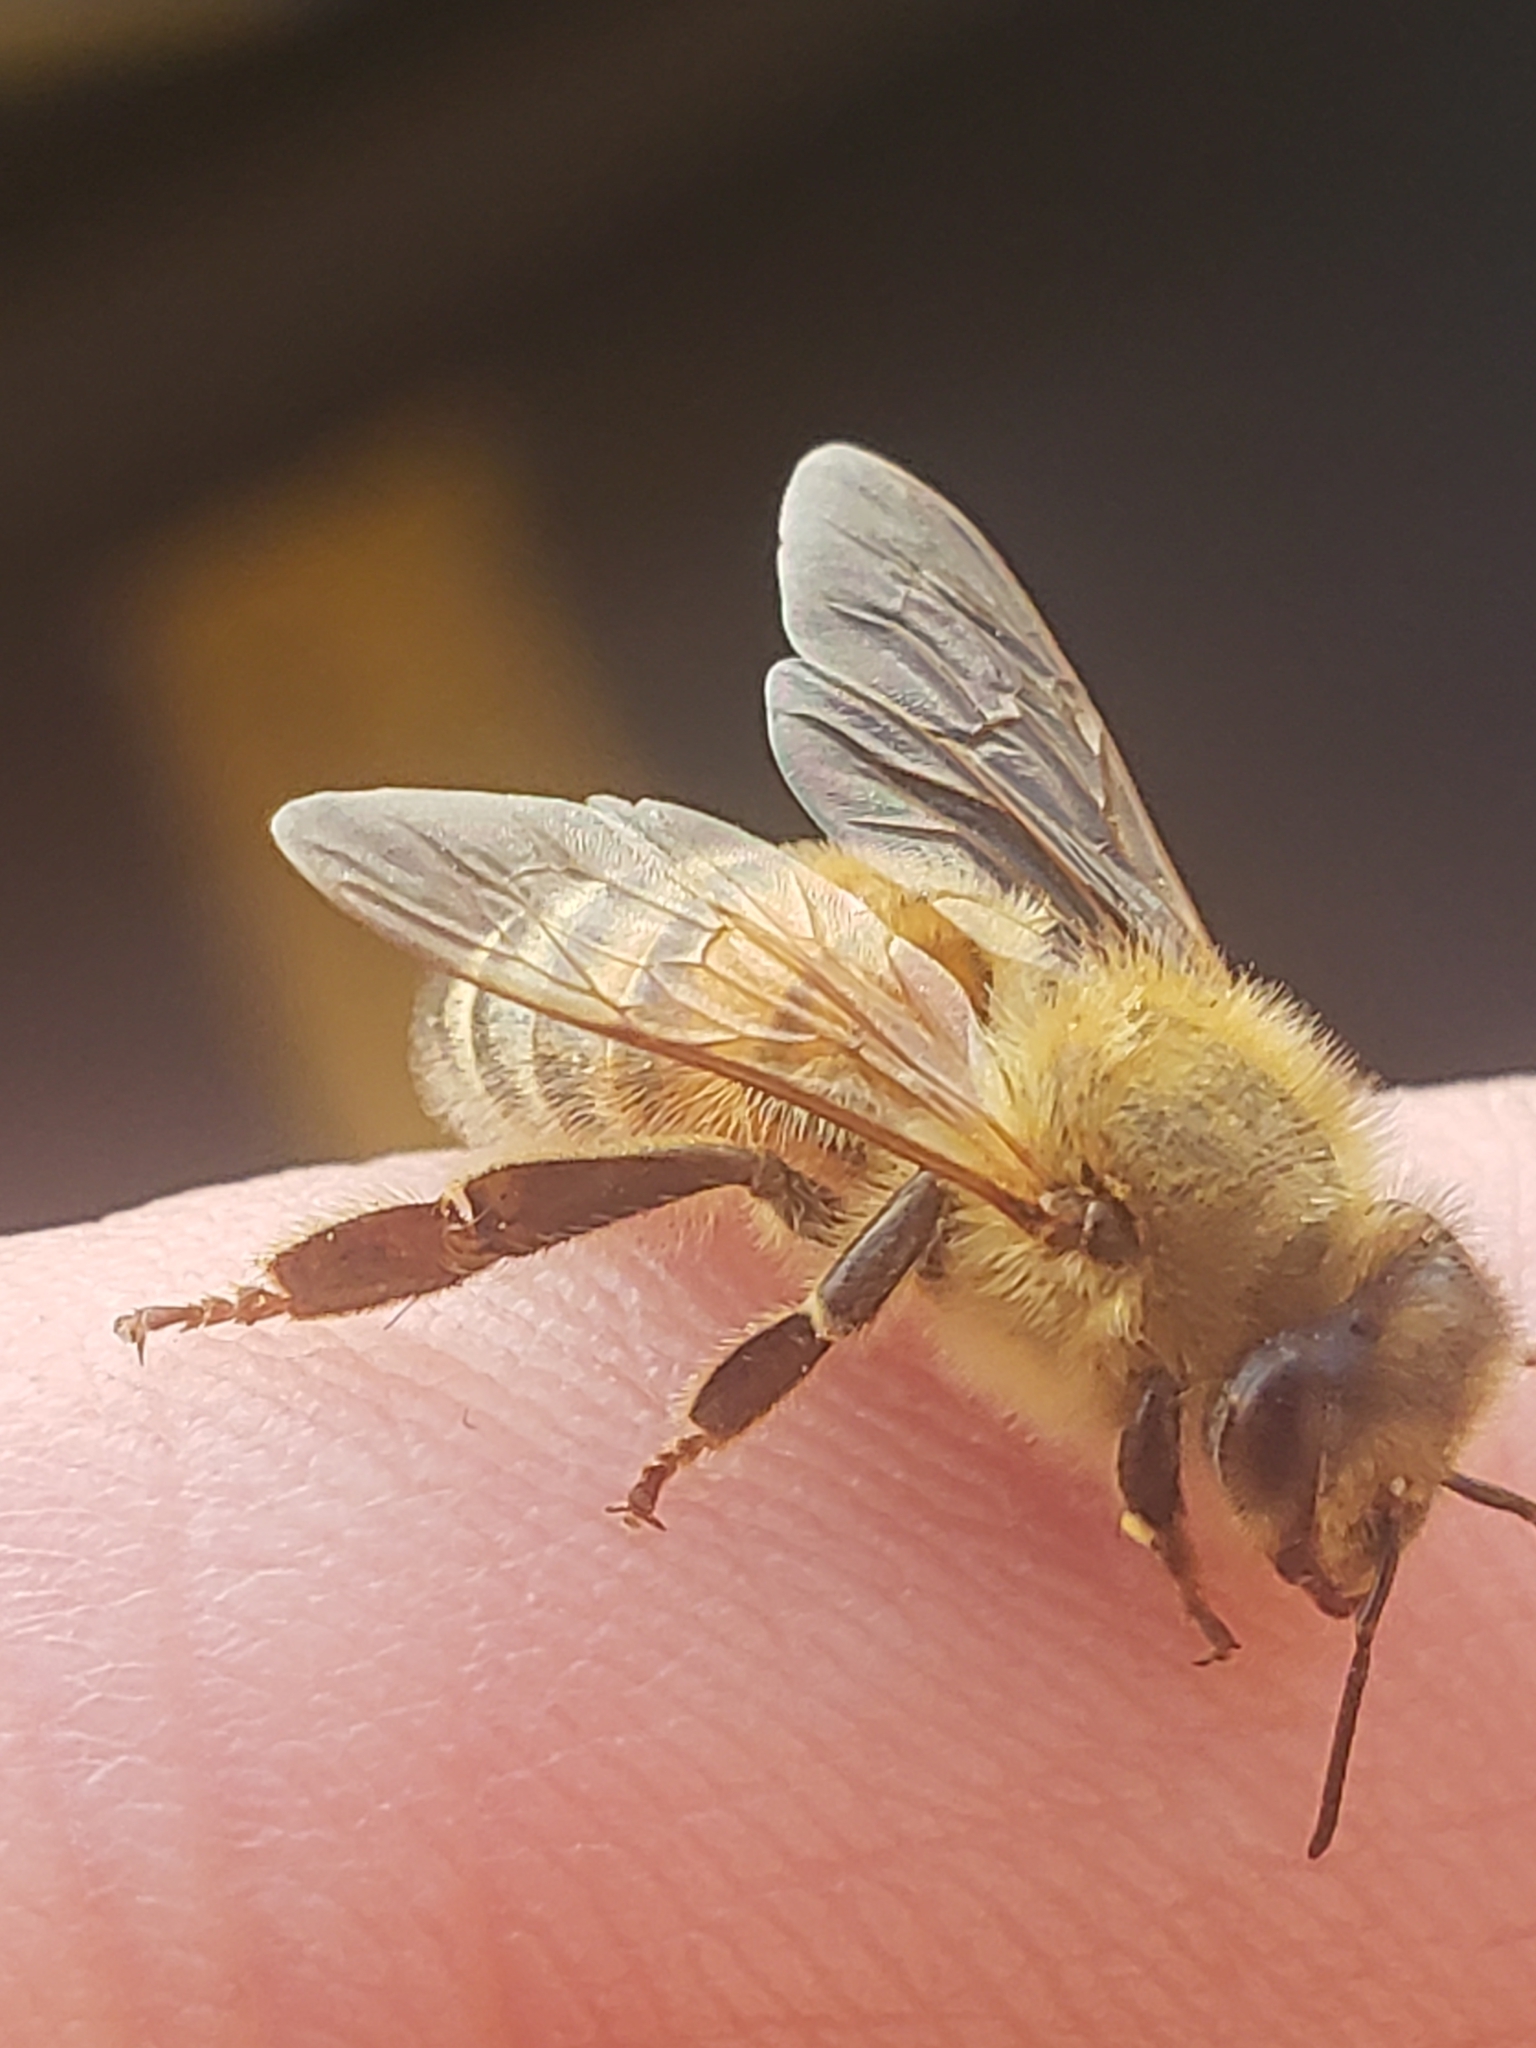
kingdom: Animalia
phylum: Arthropoda
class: Insecta
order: Hymenoptera
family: Apidae
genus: Apis
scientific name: Apis mellifera
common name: Honey bee
